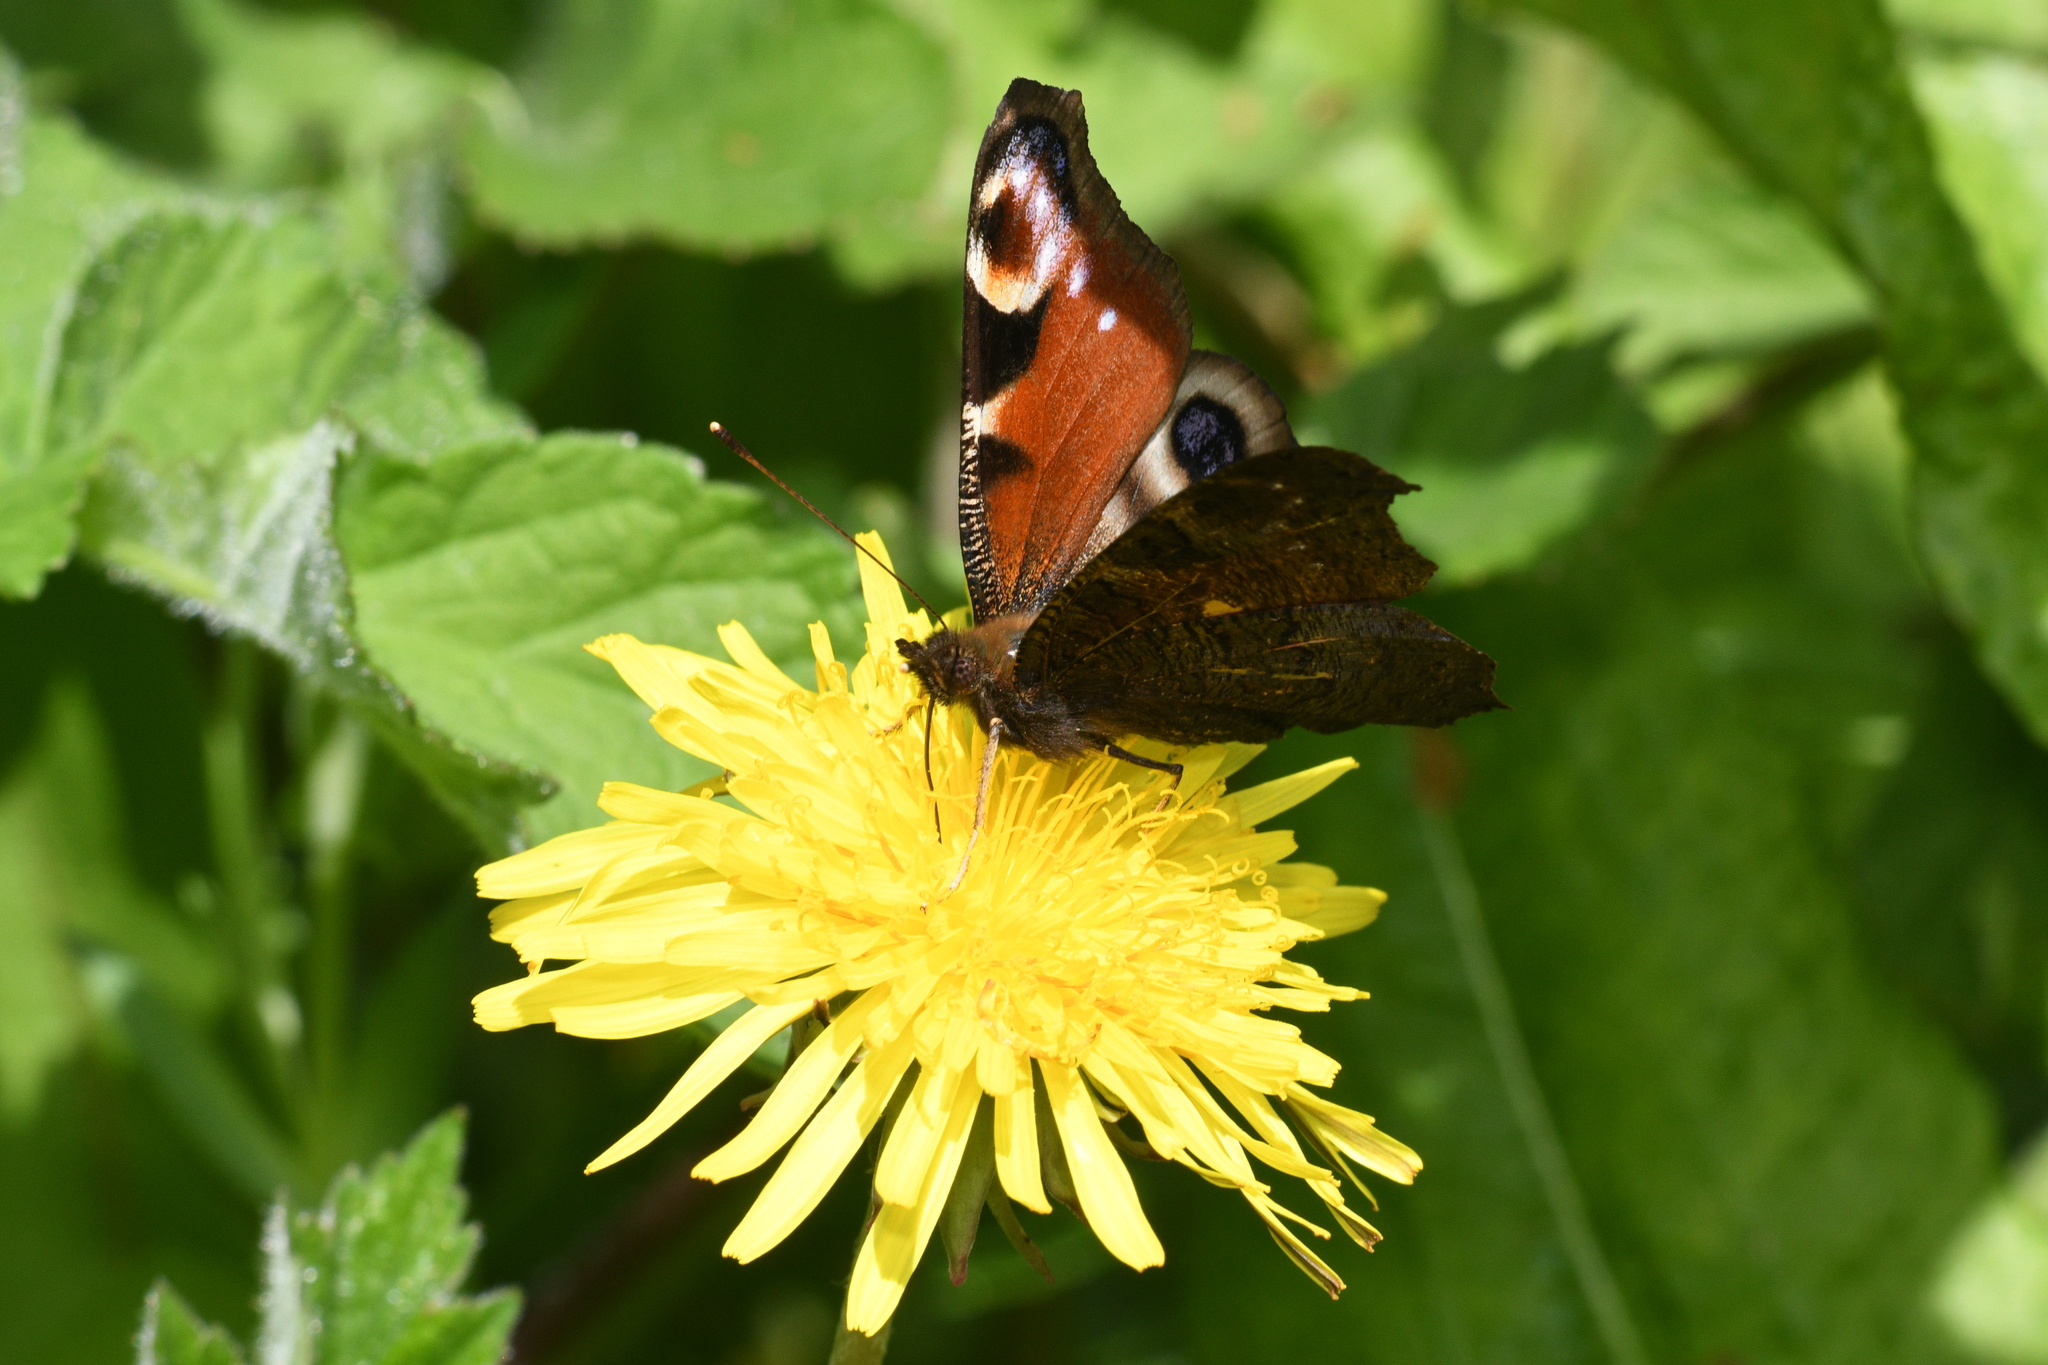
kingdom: Animalia
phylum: Arthropoda
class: Insecta
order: Lepidoptera
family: Nymphalidae
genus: Aglais
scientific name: Aglais io
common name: Peacock
